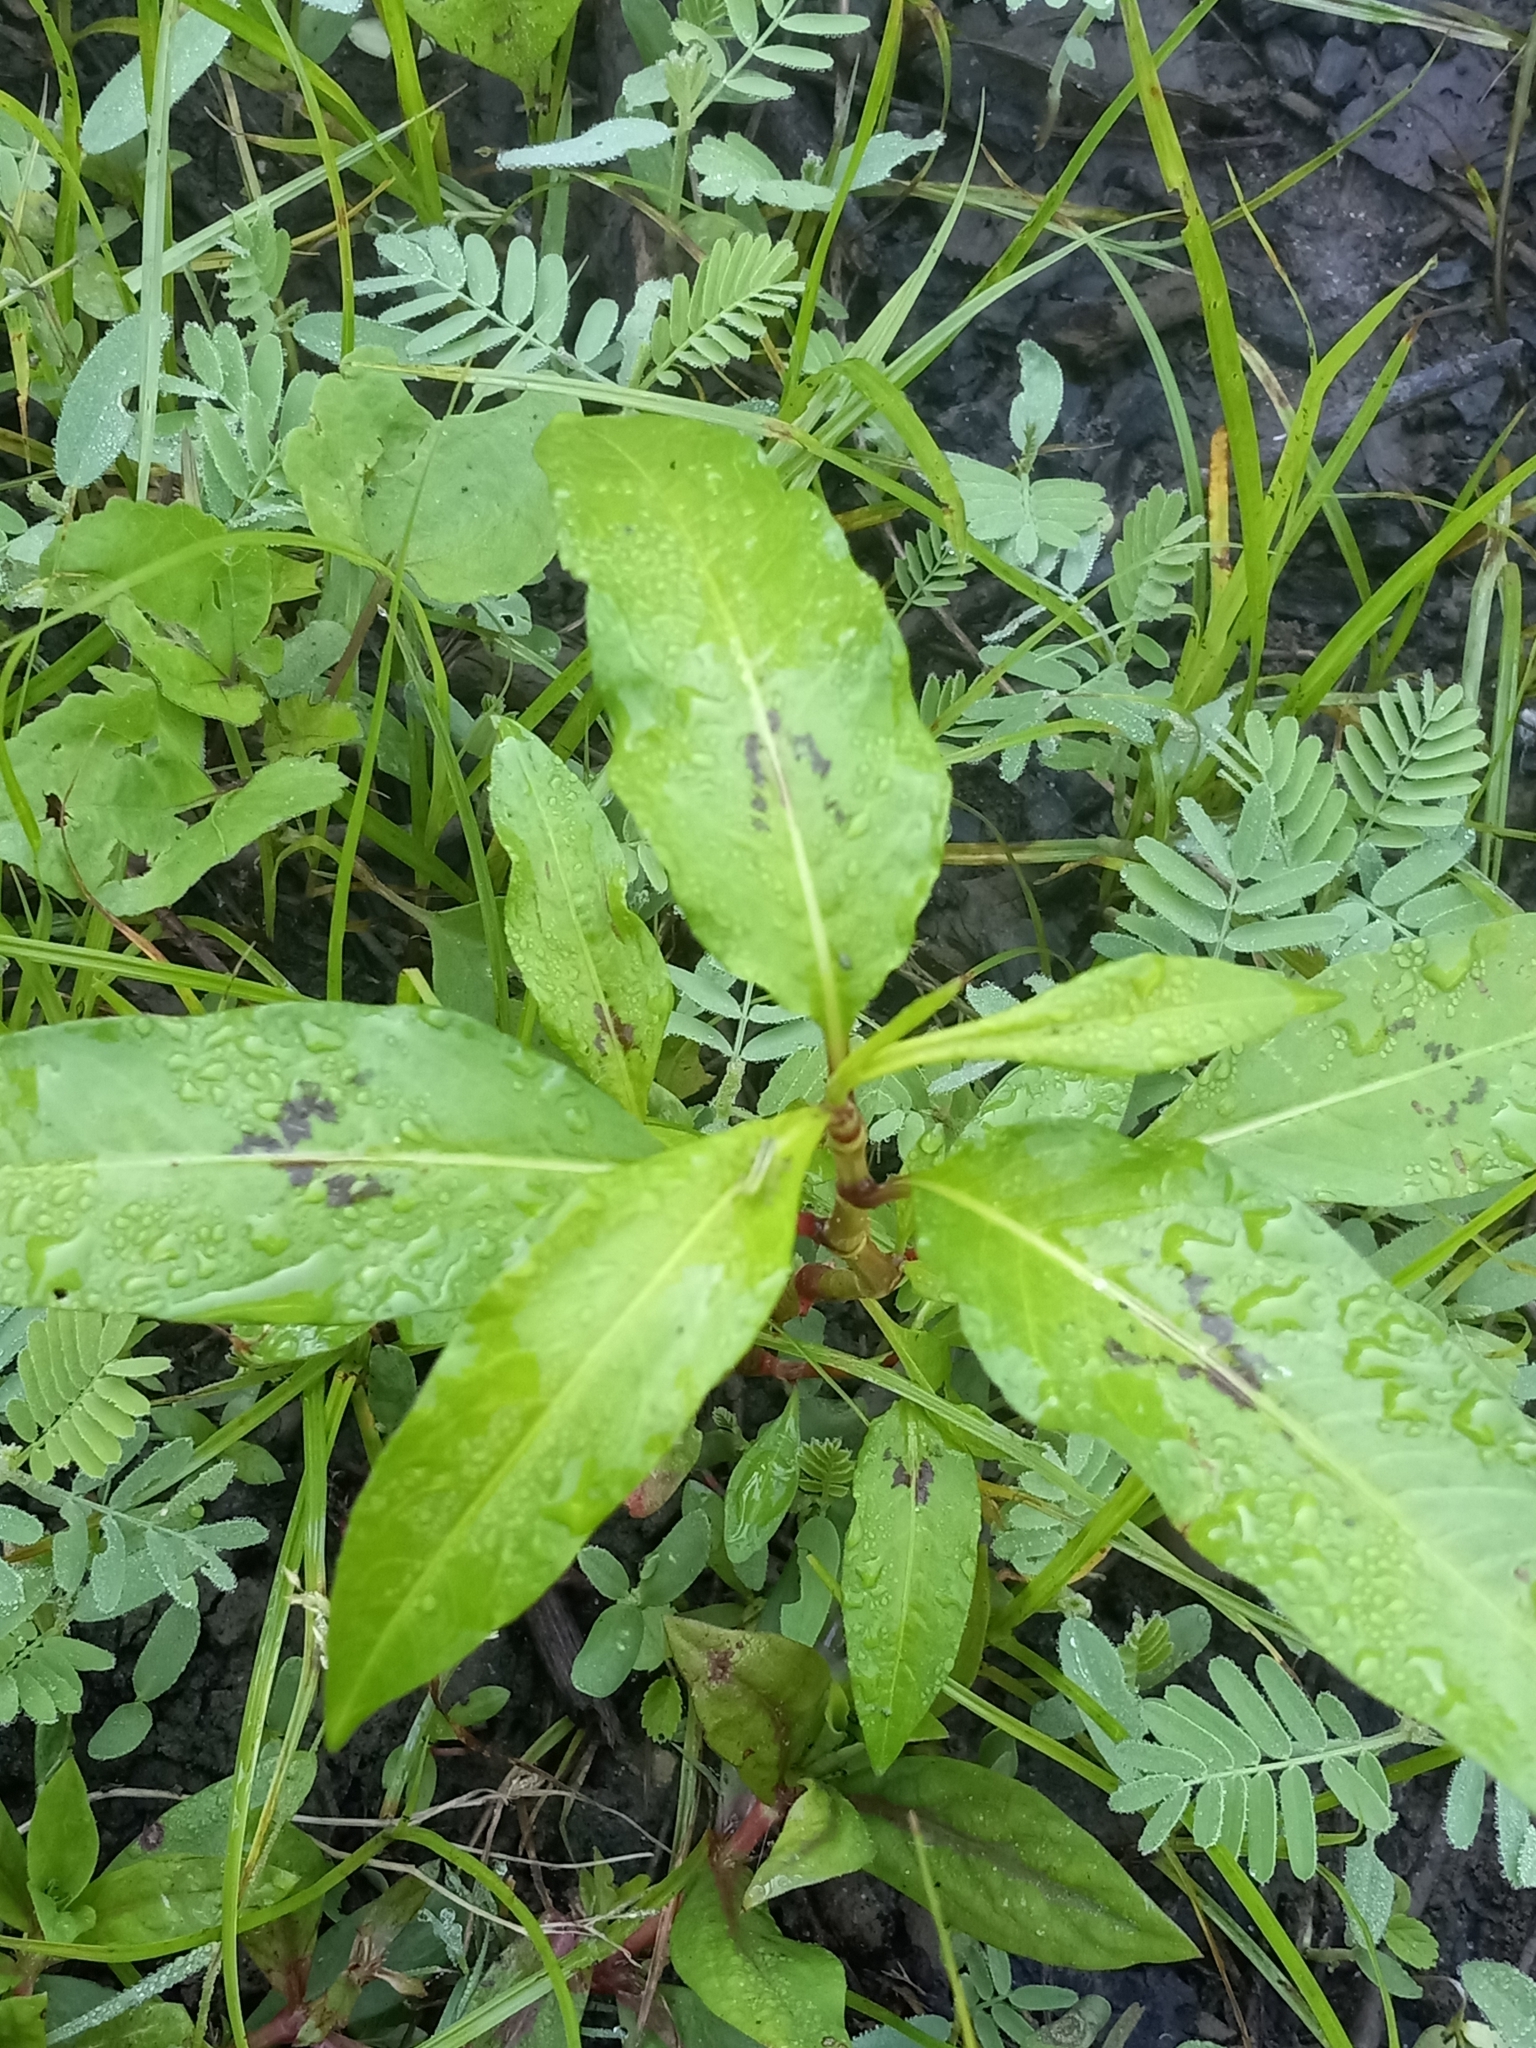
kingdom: Plantae
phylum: Tracheophyta
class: Magnoliopsida
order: Caryophyllales
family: Polygonaceae
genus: Persicaria
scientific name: Persicaria lapathifolia
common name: Curlytop knotweed
